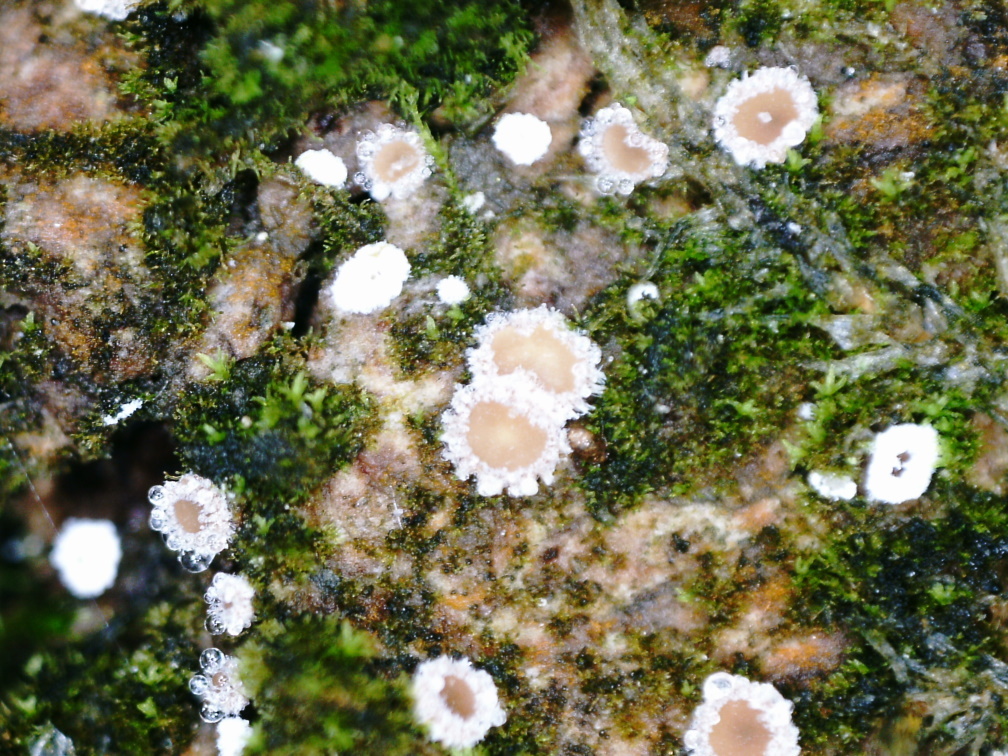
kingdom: Fungi
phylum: Ascomycota
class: Leotiomycetes
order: Helotiales
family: Lachnaceae
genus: Lachnum
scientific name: Lachnum corticale
